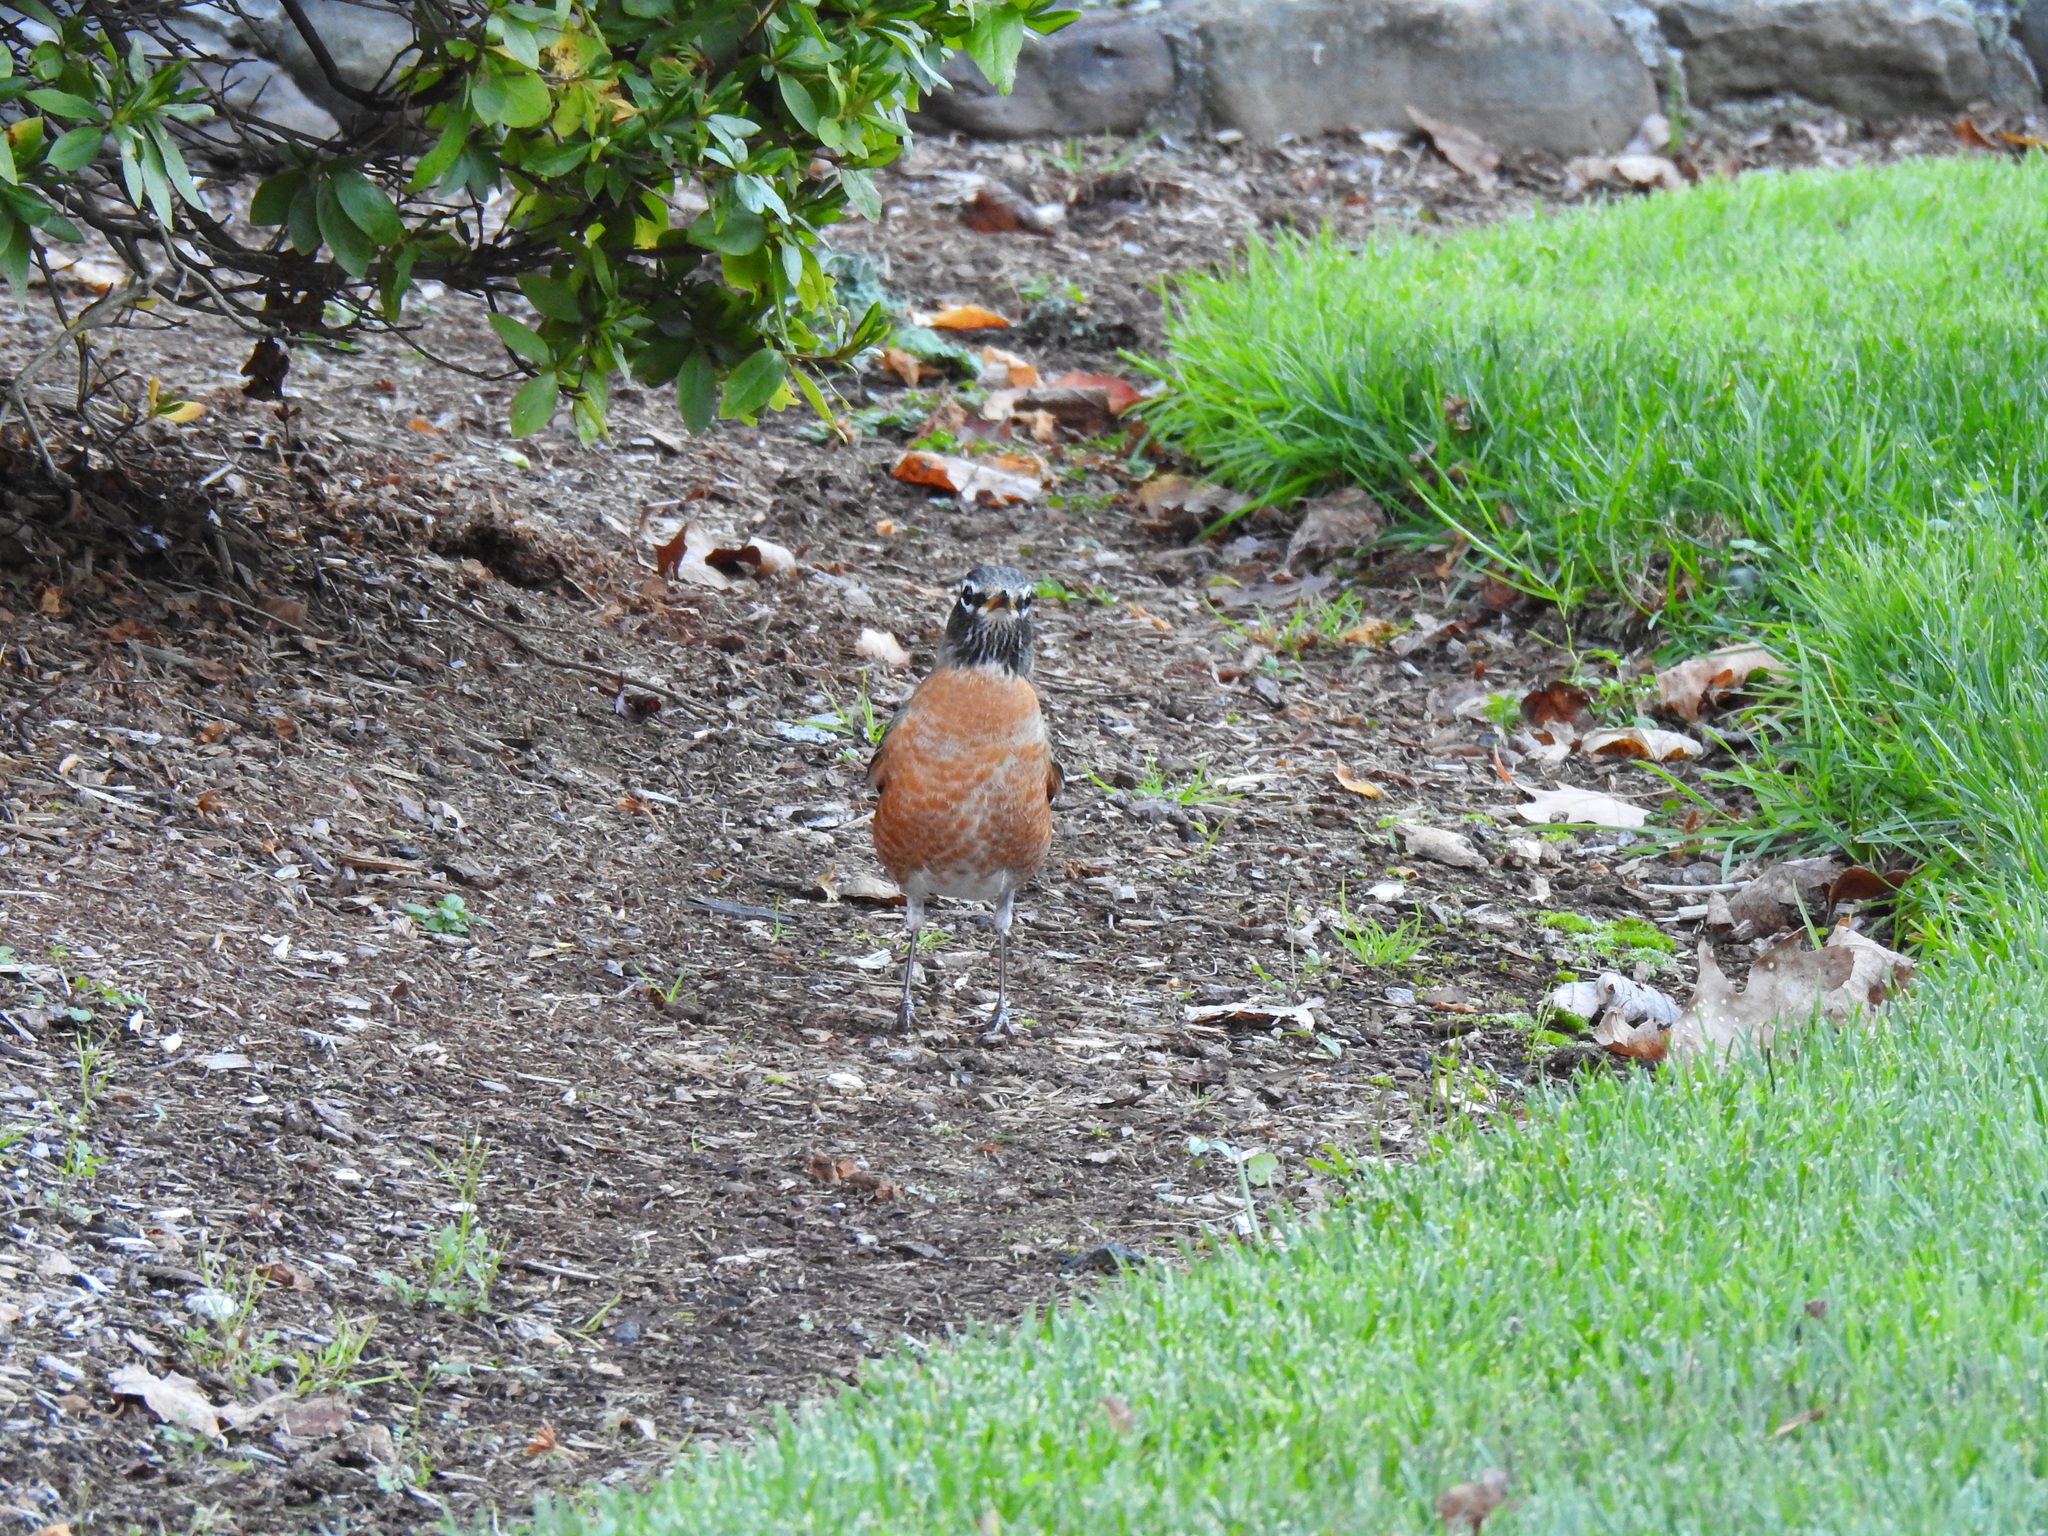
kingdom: Animalia
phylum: Chordata
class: Aves
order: Passeriformes
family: Turdidae
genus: Turdus
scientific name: Turdus migratorius
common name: American robin
